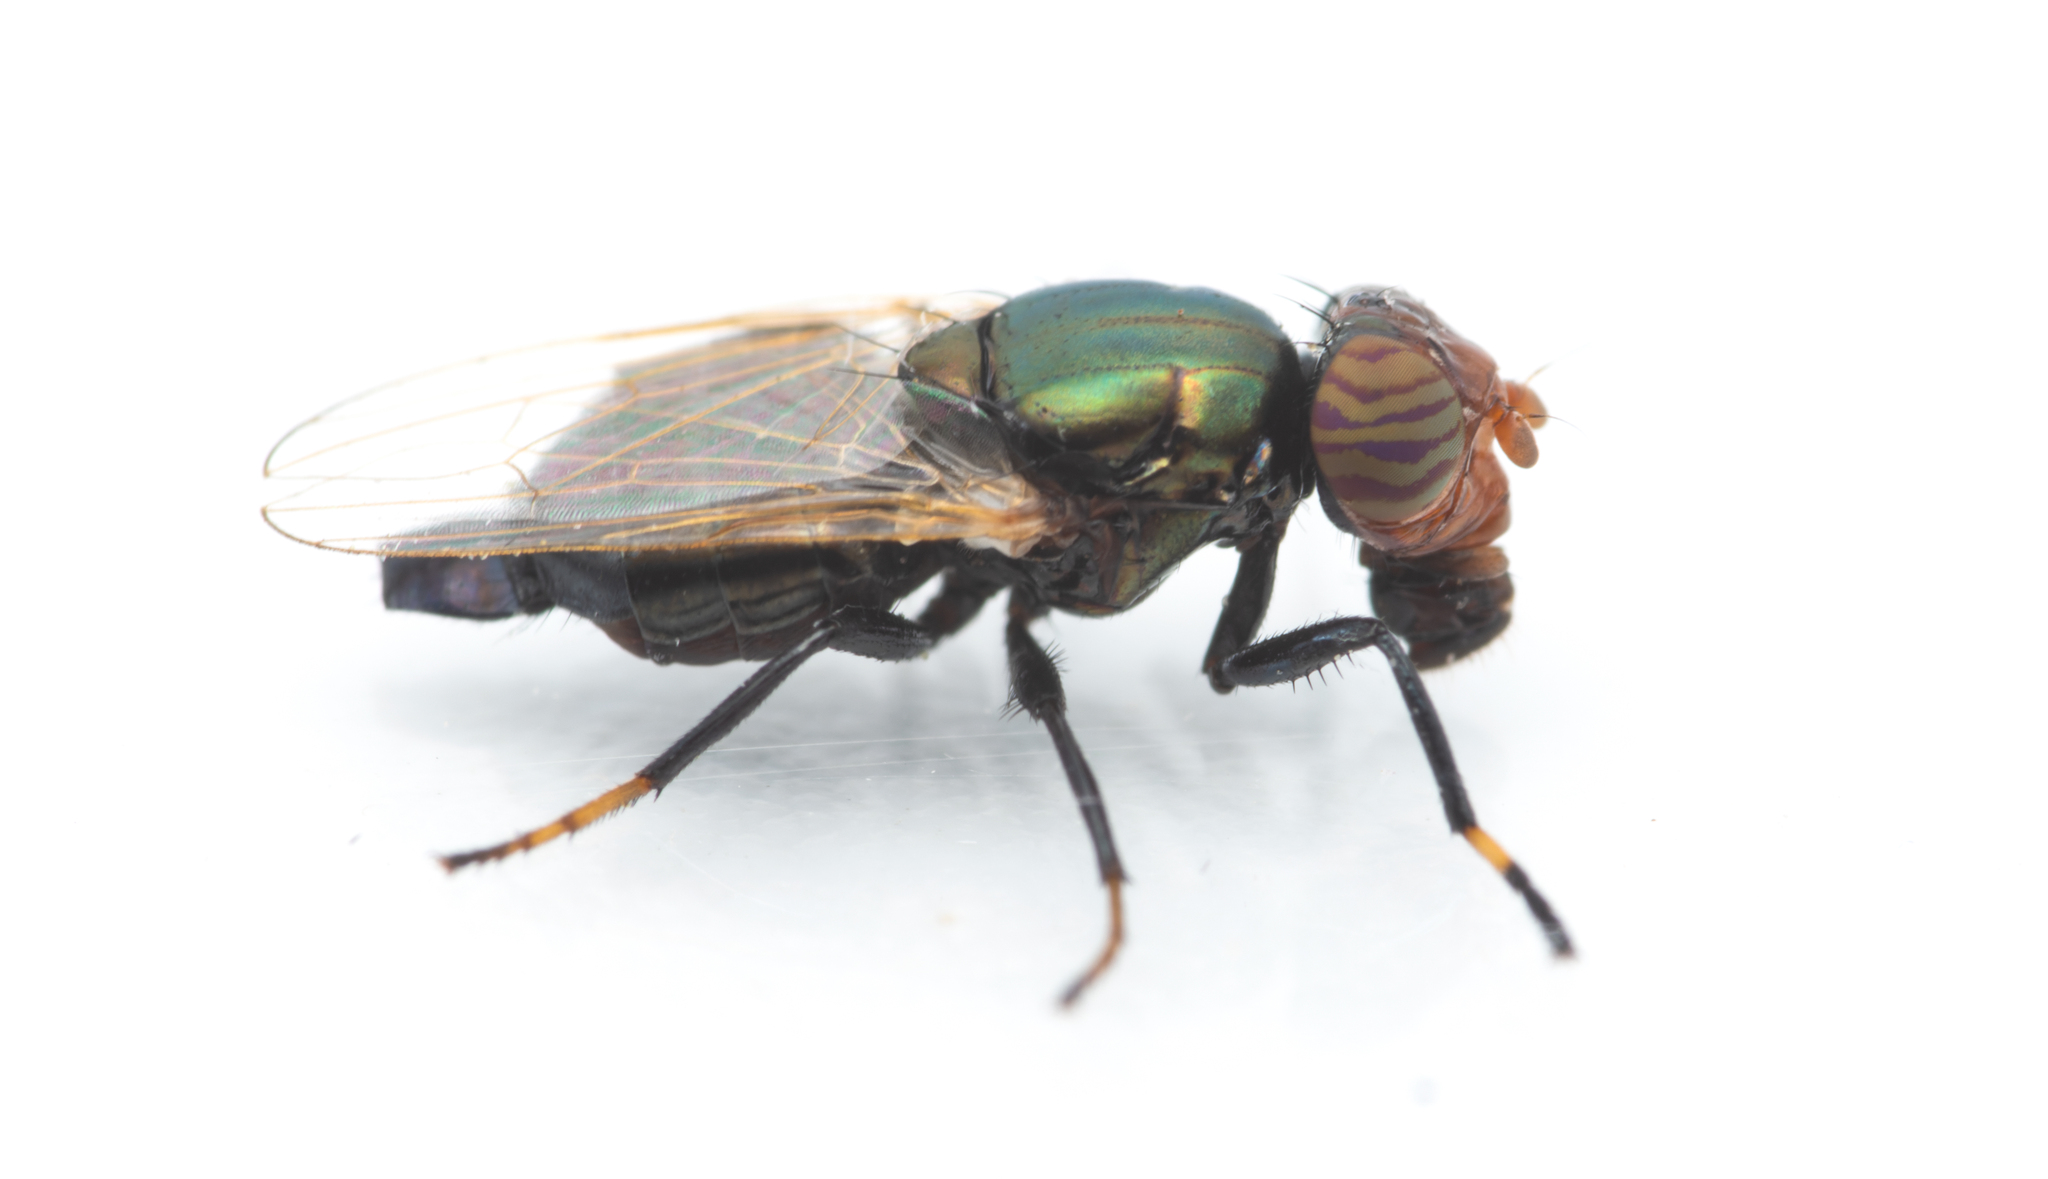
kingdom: Animalia
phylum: Arthropoda
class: Insecta
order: Diptera
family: Ulidiidae
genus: Physiphora
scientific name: Physiphora alceae
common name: Picture-winged fly
